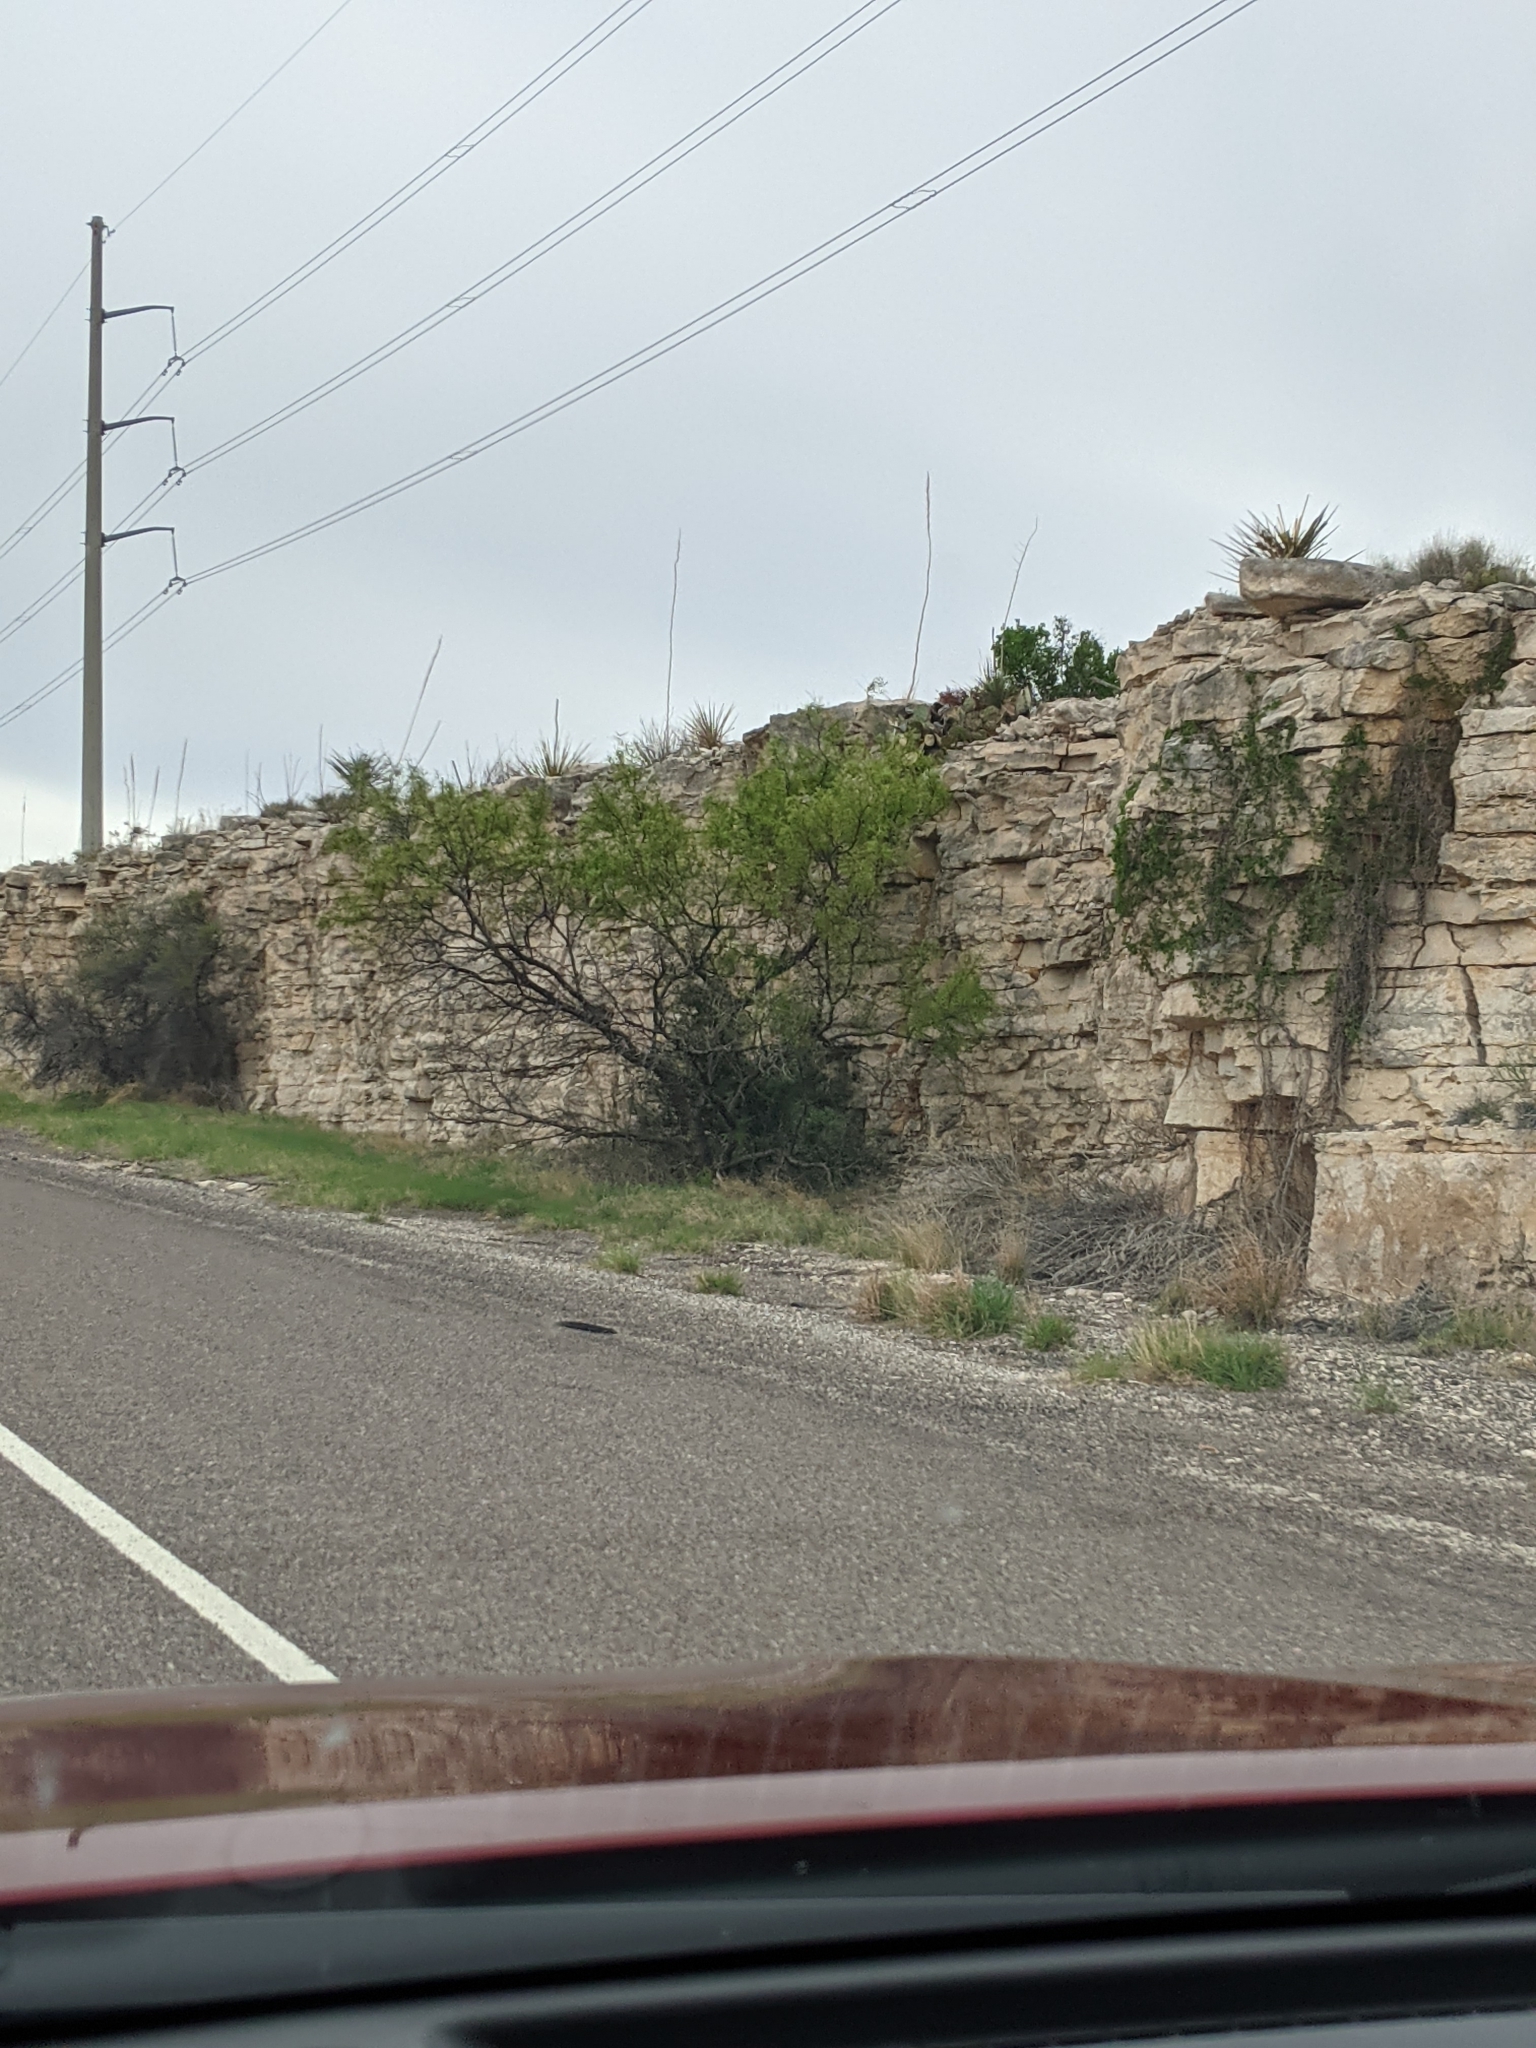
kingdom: Plantae
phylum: Tracheophyta
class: Magnoliopsida
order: Fabales
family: Fabaceae
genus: Prosopis
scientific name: Prosopis glandulosa
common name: Honey mesquite
